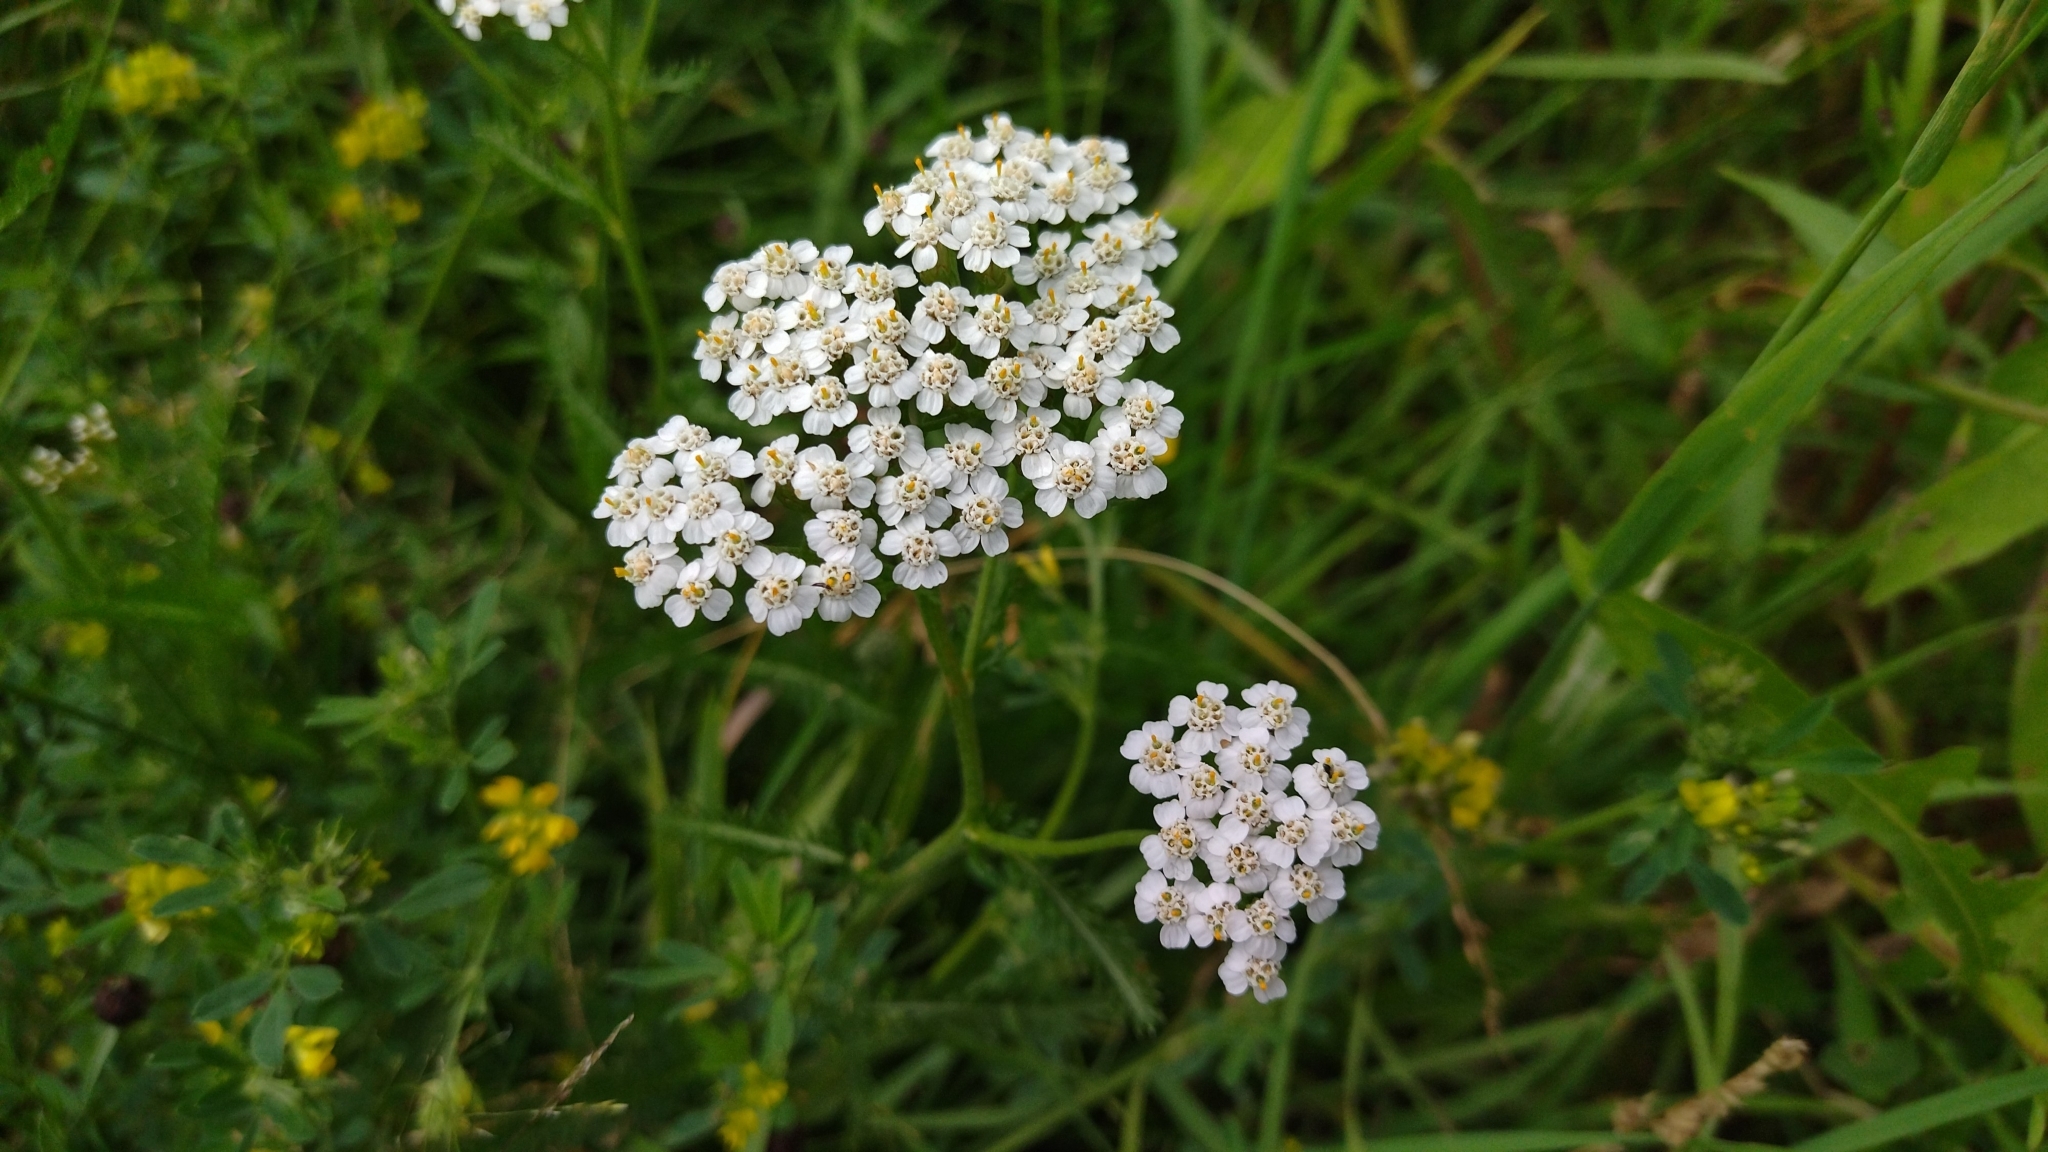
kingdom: Plantae
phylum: Tracheophyta
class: Magnoliopsida
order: Asterales
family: Asteraceae
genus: Achillea
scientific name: Achillea millefolium
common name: Yarrow
